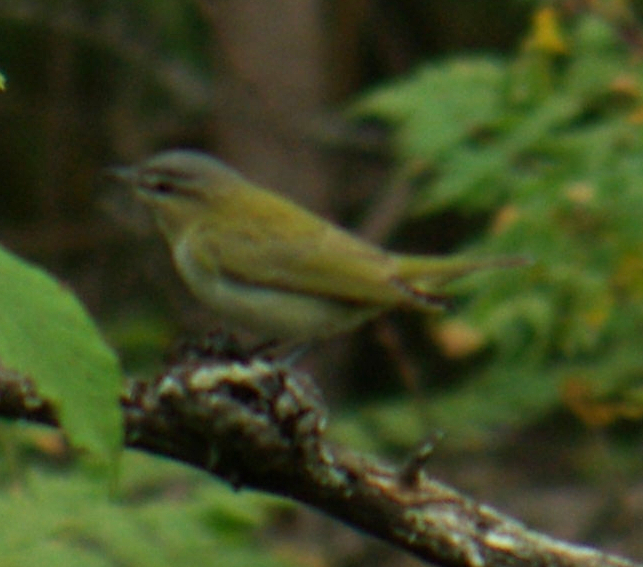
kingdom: Animalia
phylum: Chordata
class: Aves
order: Passeriformes
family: Vireonidae
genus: Vireo
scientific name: Vireo olivaceus
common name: Red-eyed vireo
